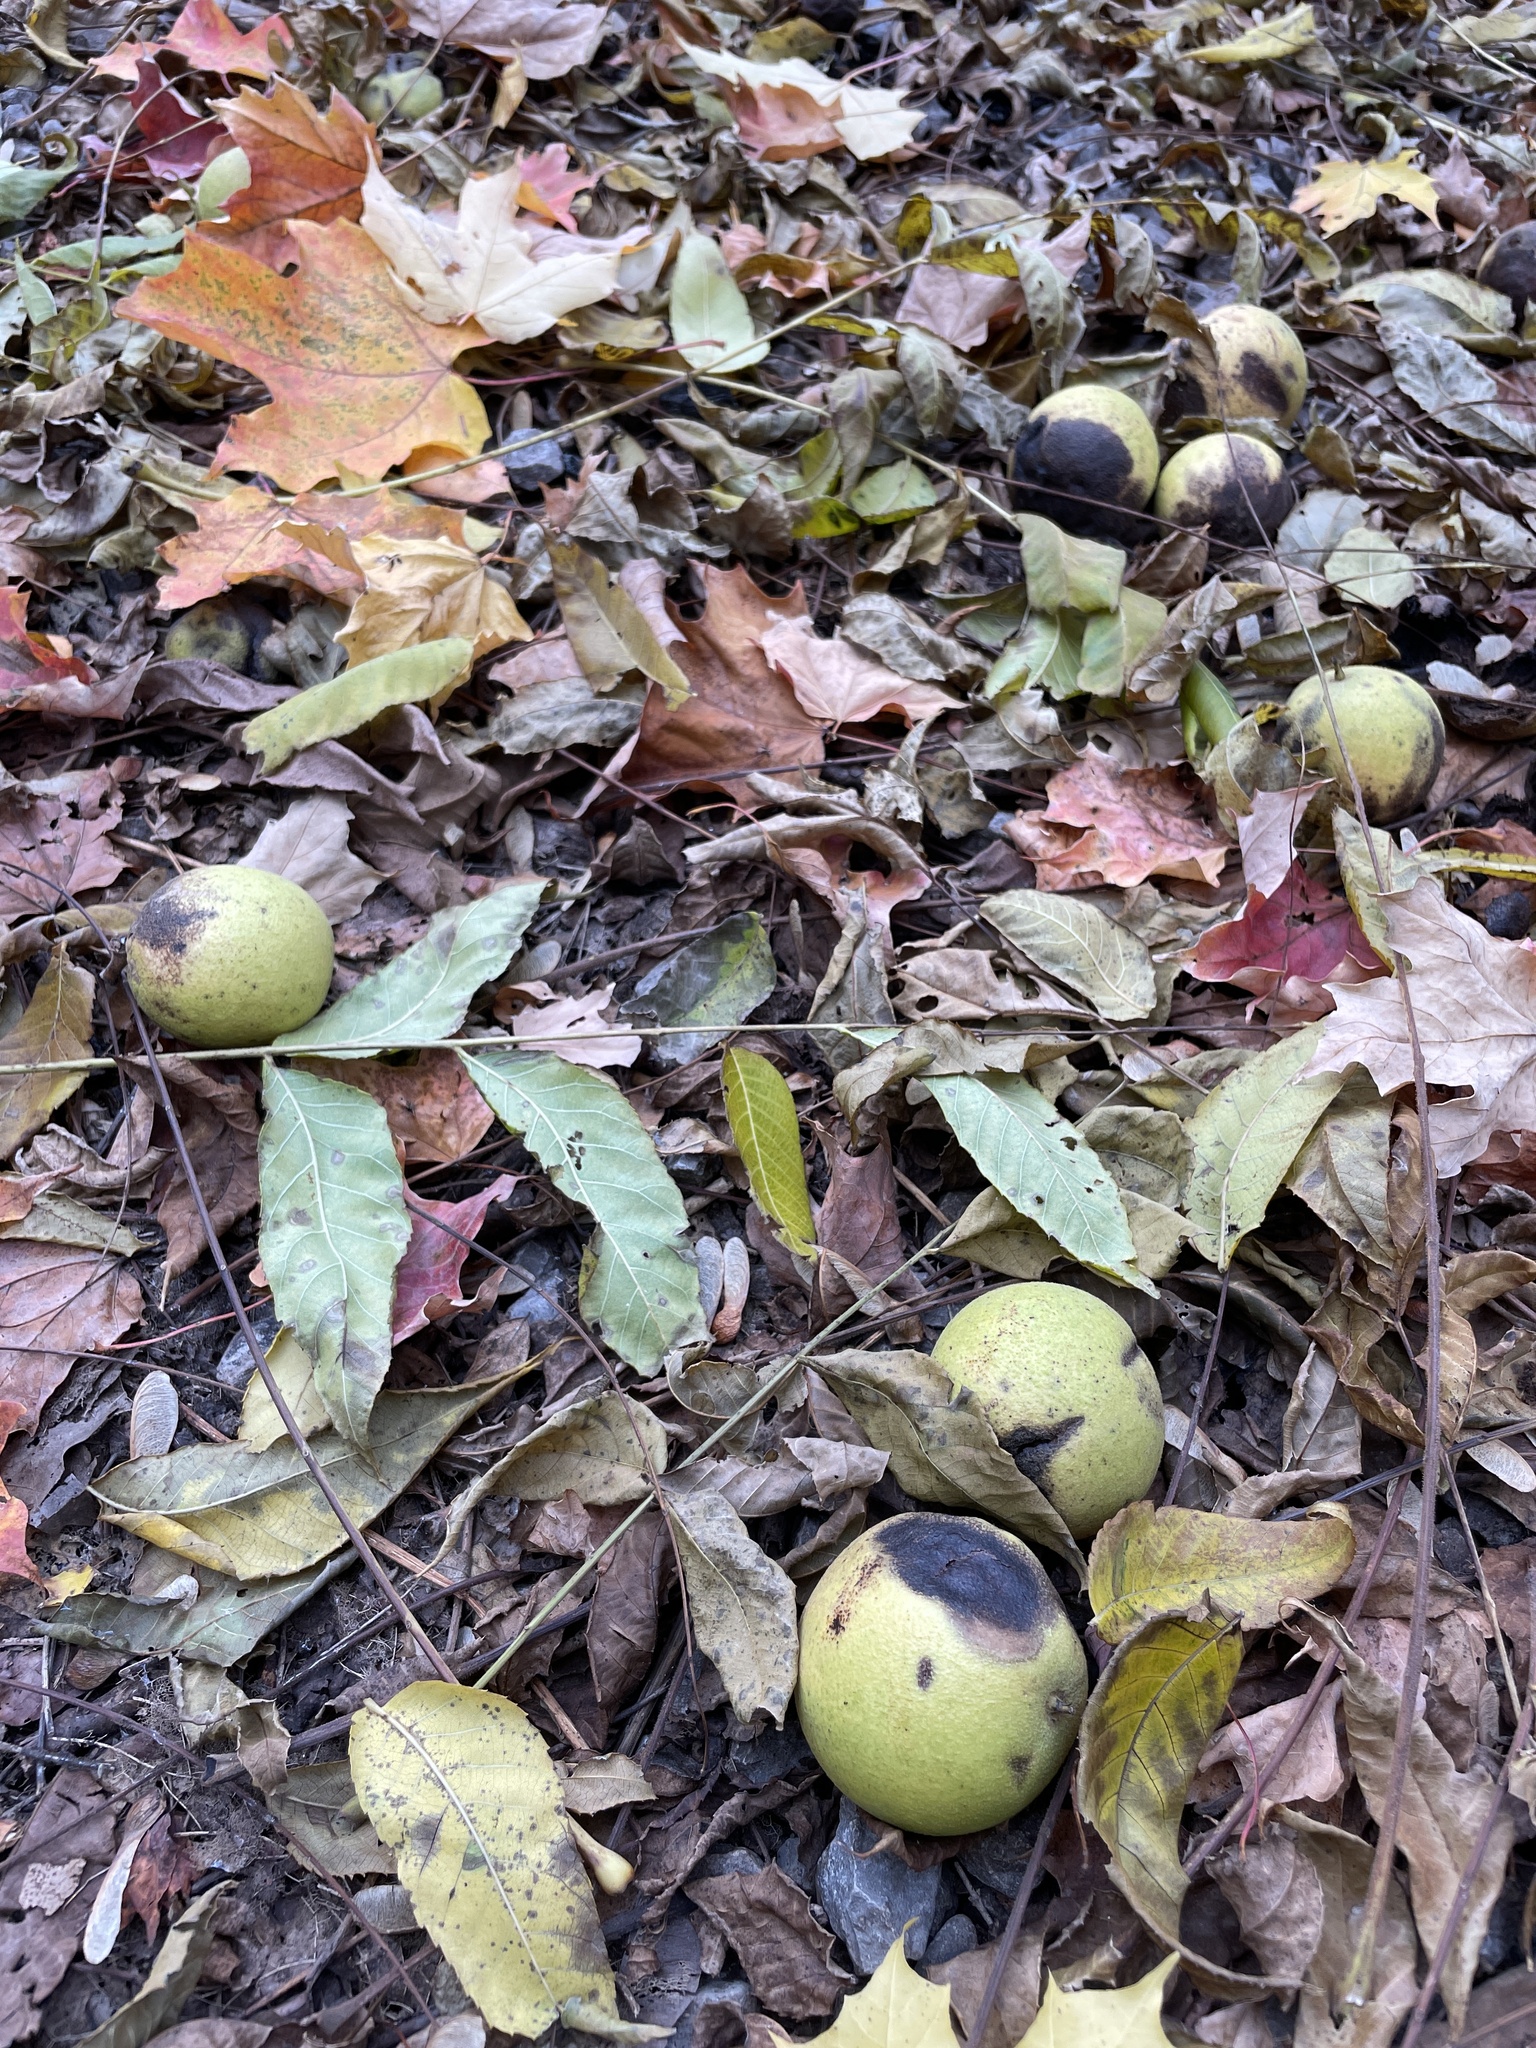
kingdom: Plantae
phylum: Tracheophyta
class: Magnoliopsida
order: Fagales
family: Juglandaceae
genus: Juglans
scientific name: Juglans nigra
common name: Black walnut
